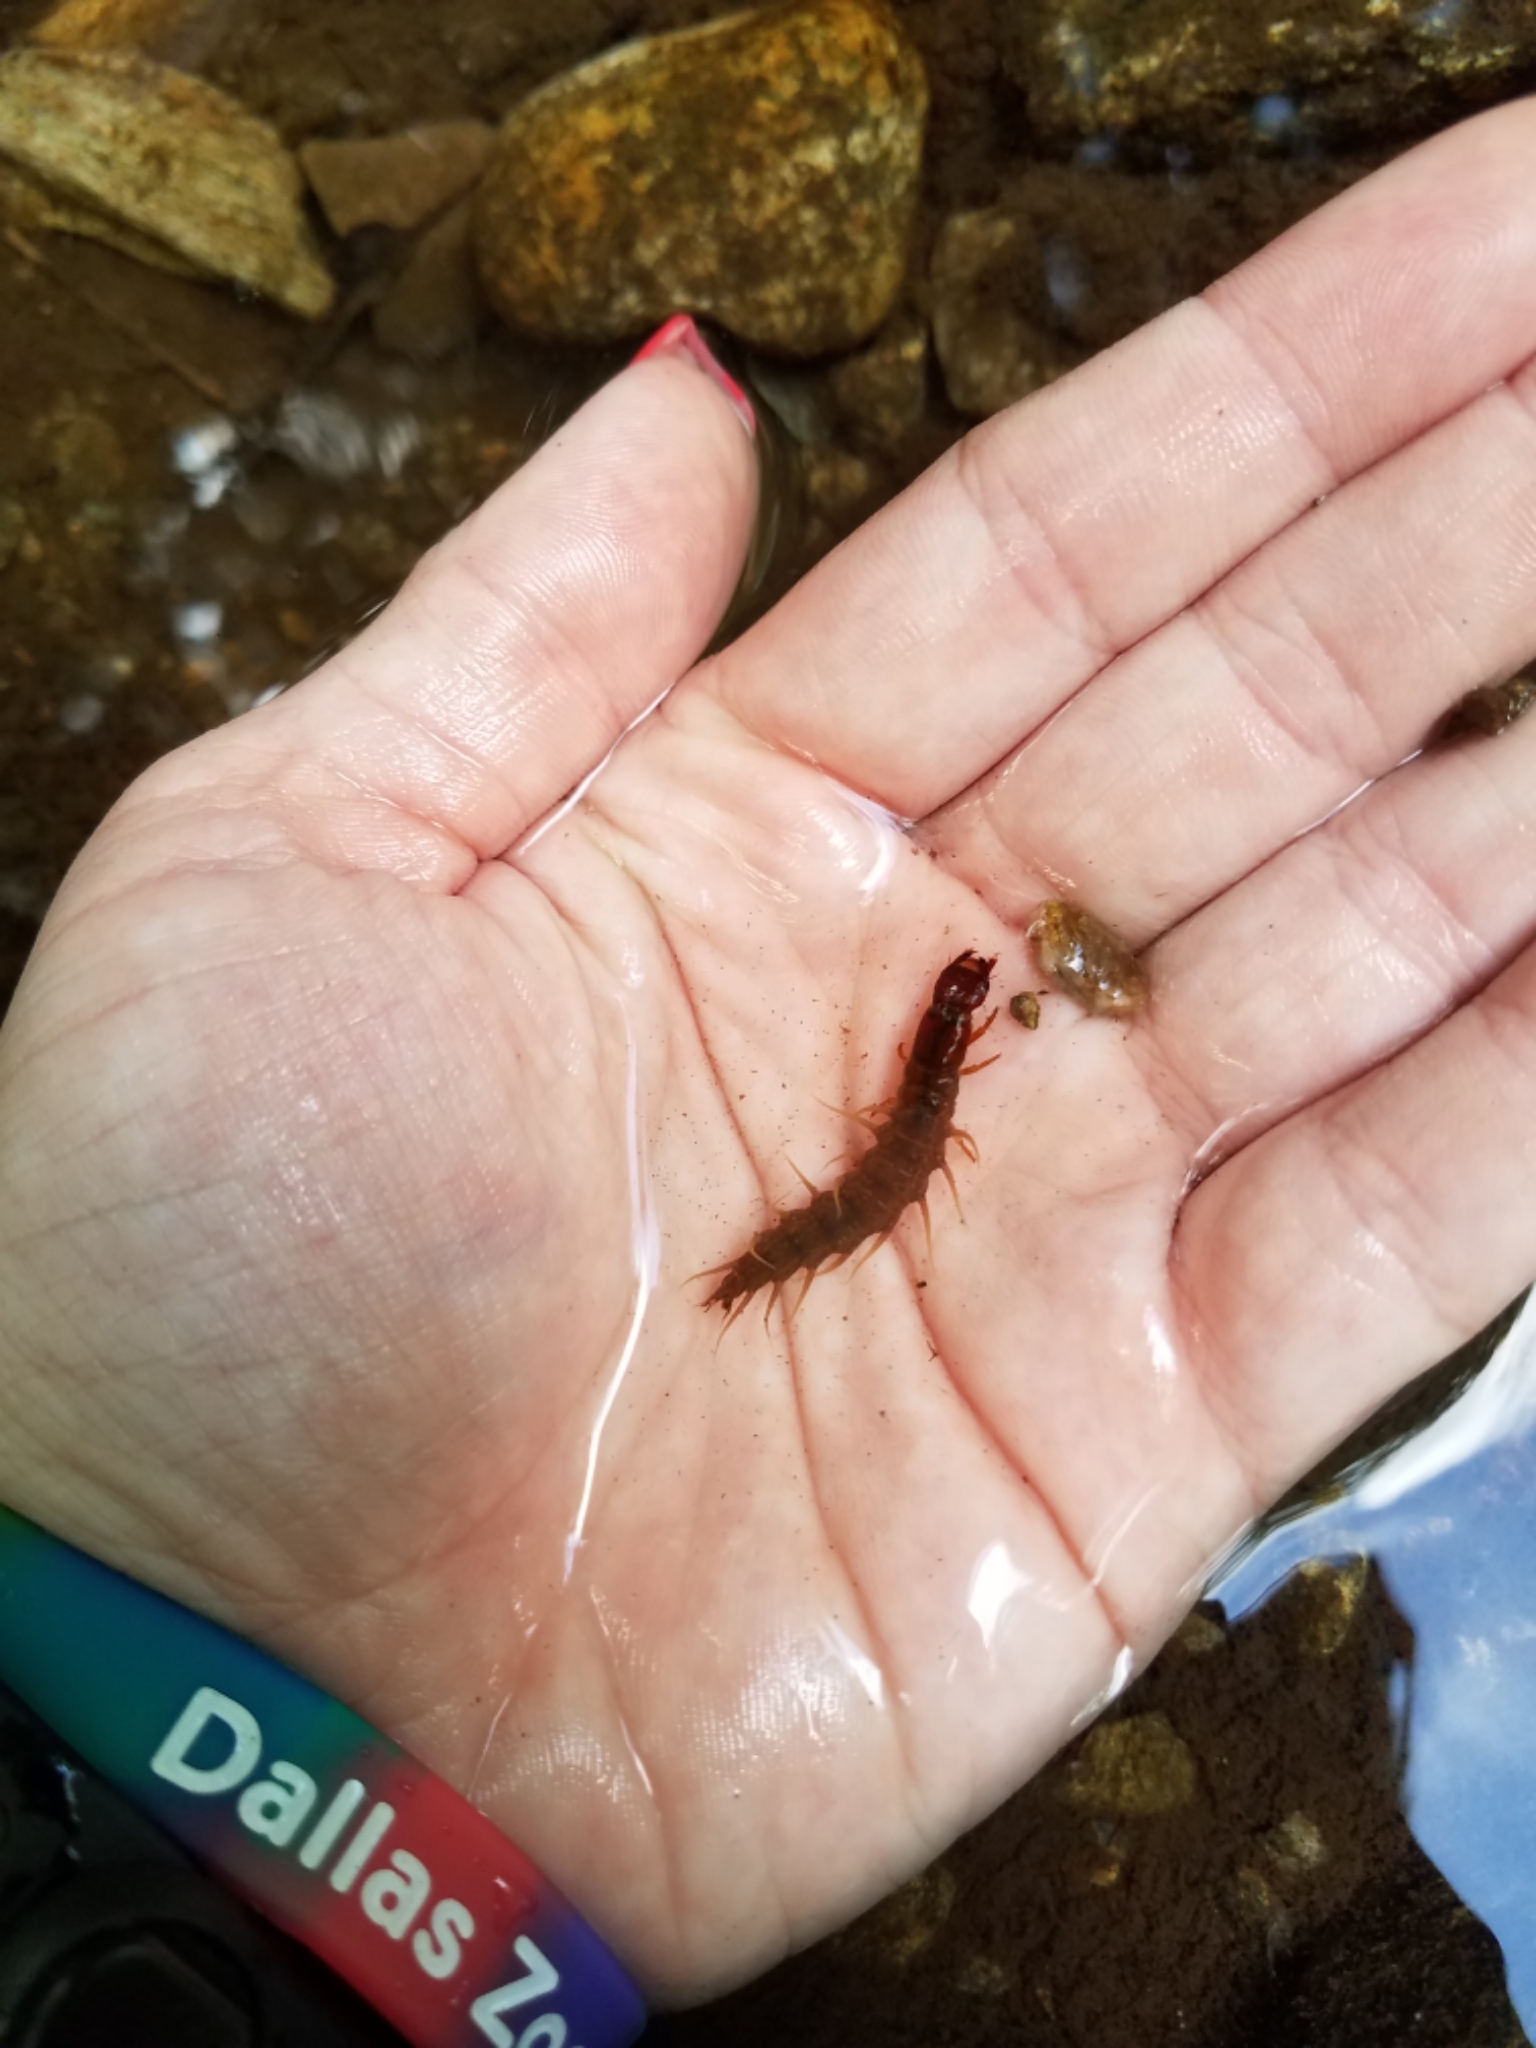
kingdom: Animalia
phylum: Arthropoda
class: Insecta
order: Megaloptera
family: Corydalidae
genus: Nigronia
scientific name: Nigronia
